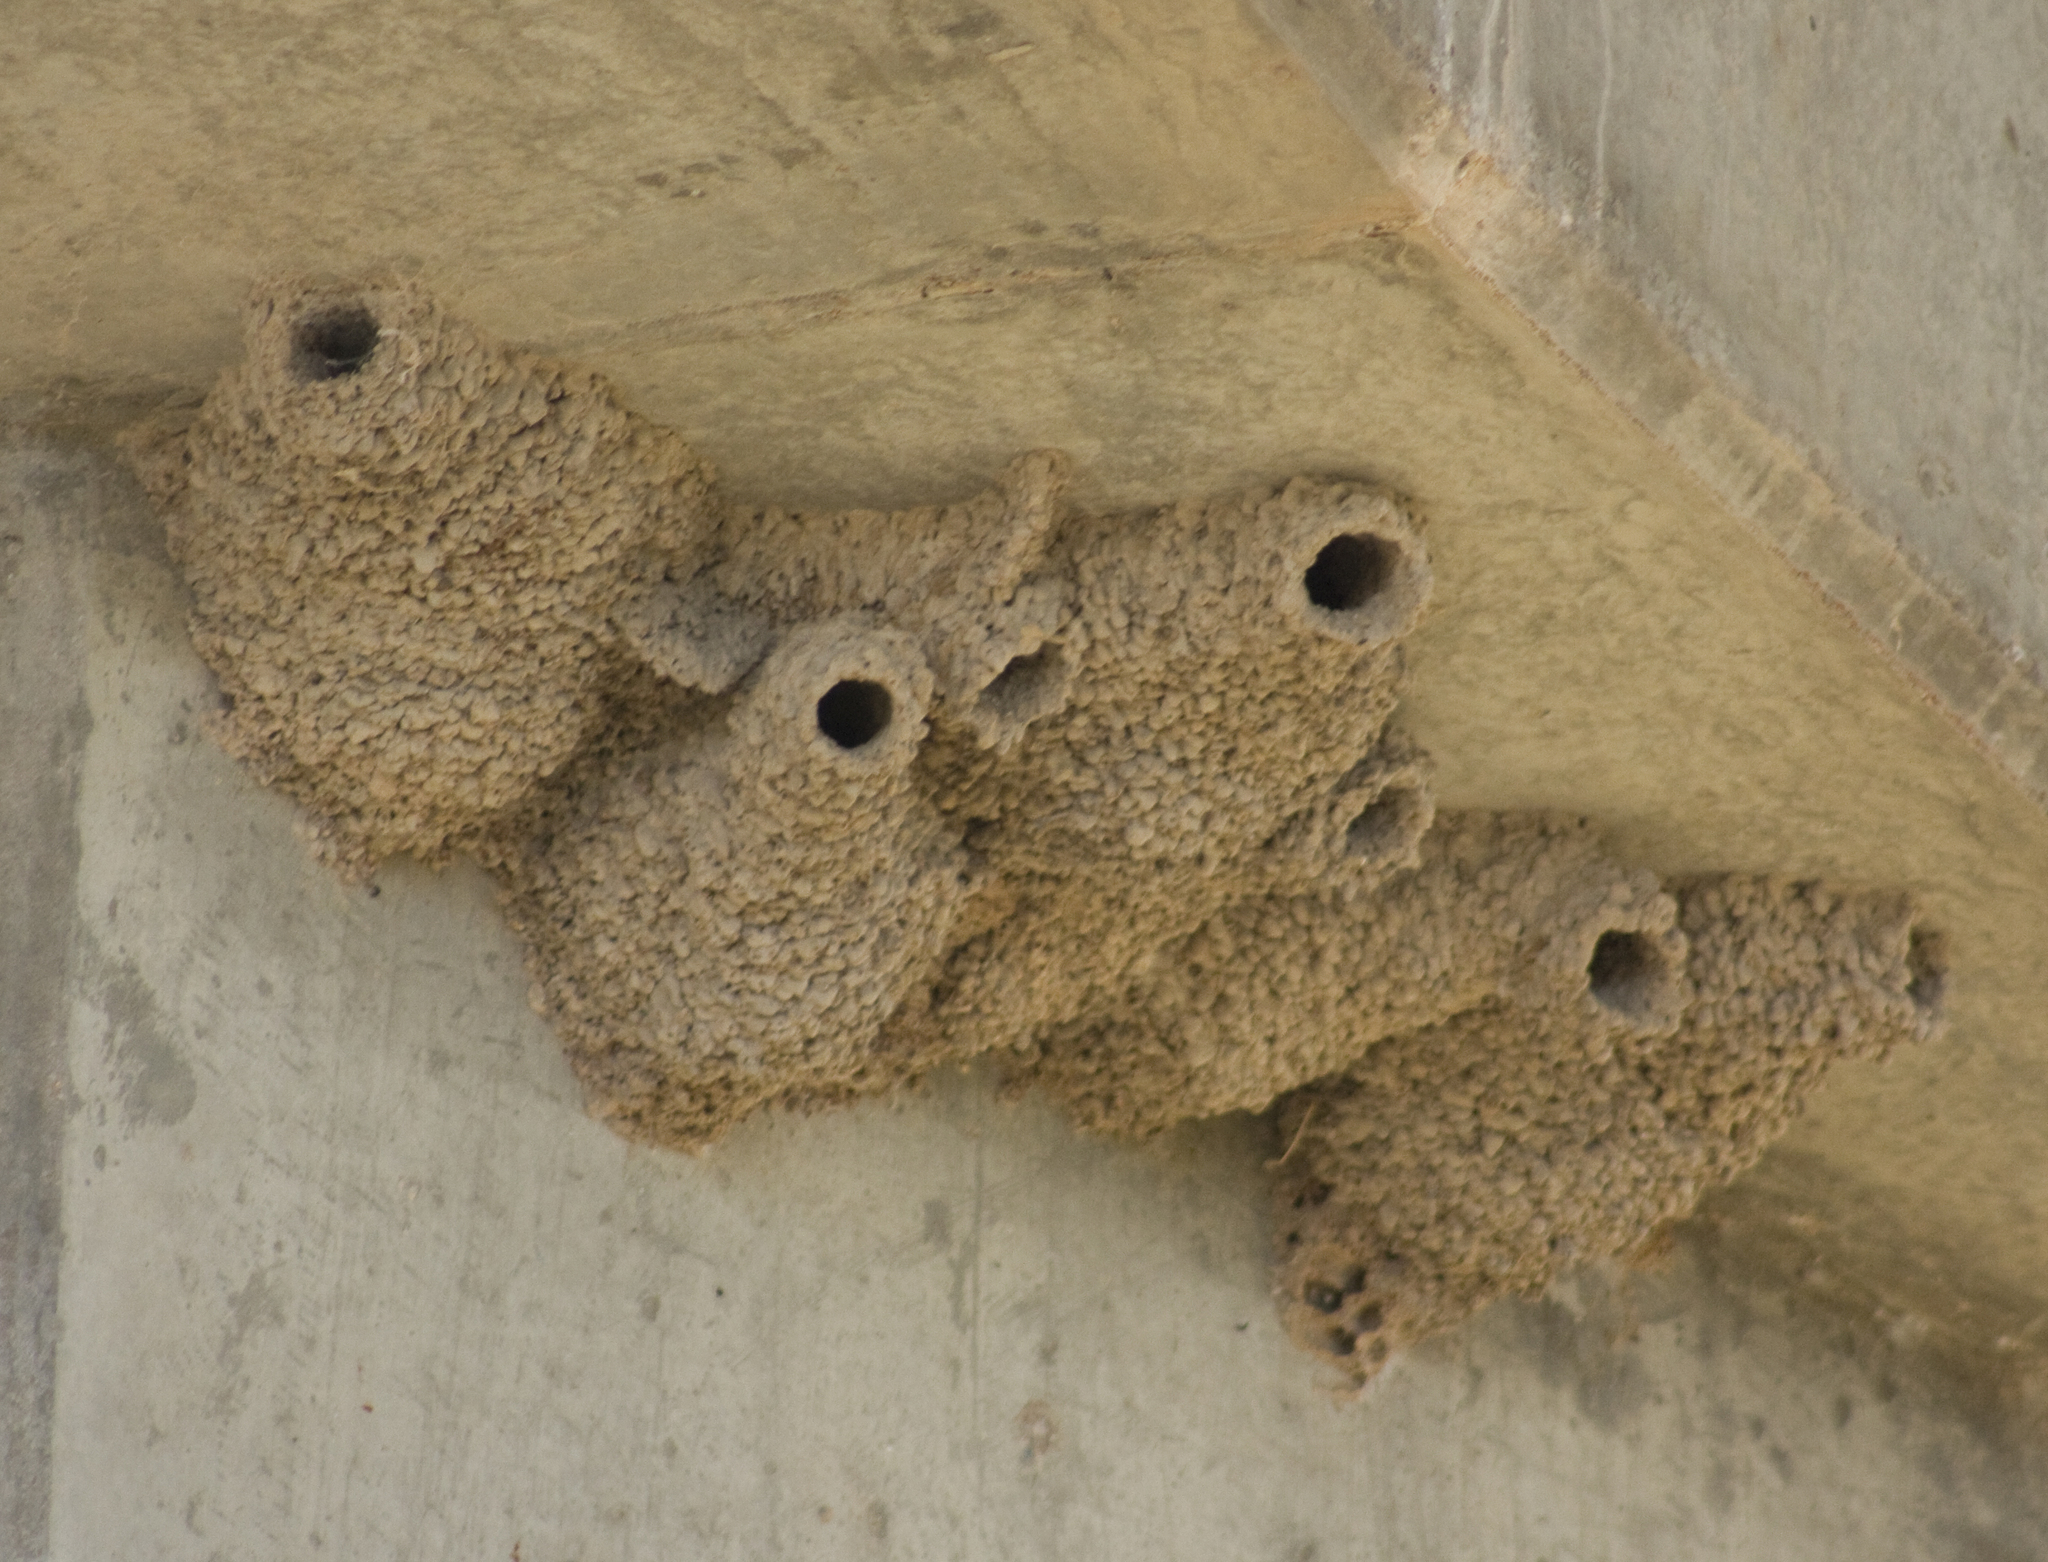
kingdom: Animalia
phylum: Chordata
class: Aves
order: Passeriformes
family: Hirundinidae
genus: Petrochelidon
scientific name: Petrochelidon ariel
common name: Fairy martin
